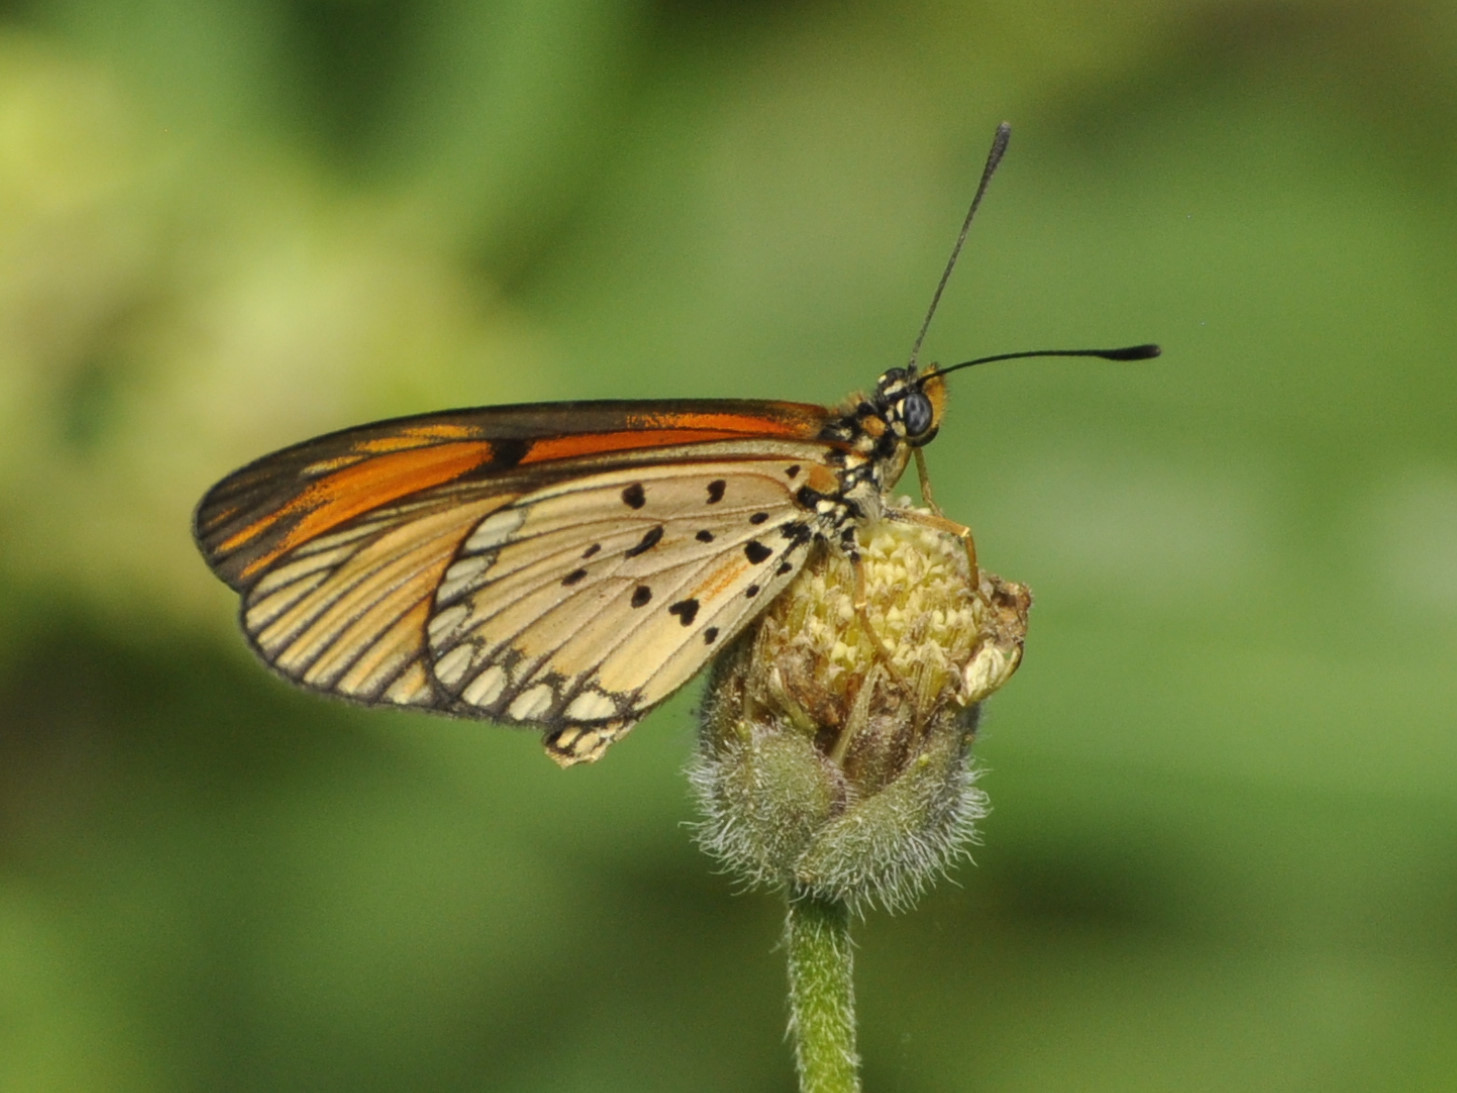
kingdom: Animalia
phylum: Arthropoda
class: Insecta
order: Lepidoptera
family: Nymphalidae
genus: Acraea
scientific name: Acraea Telchinia serena
